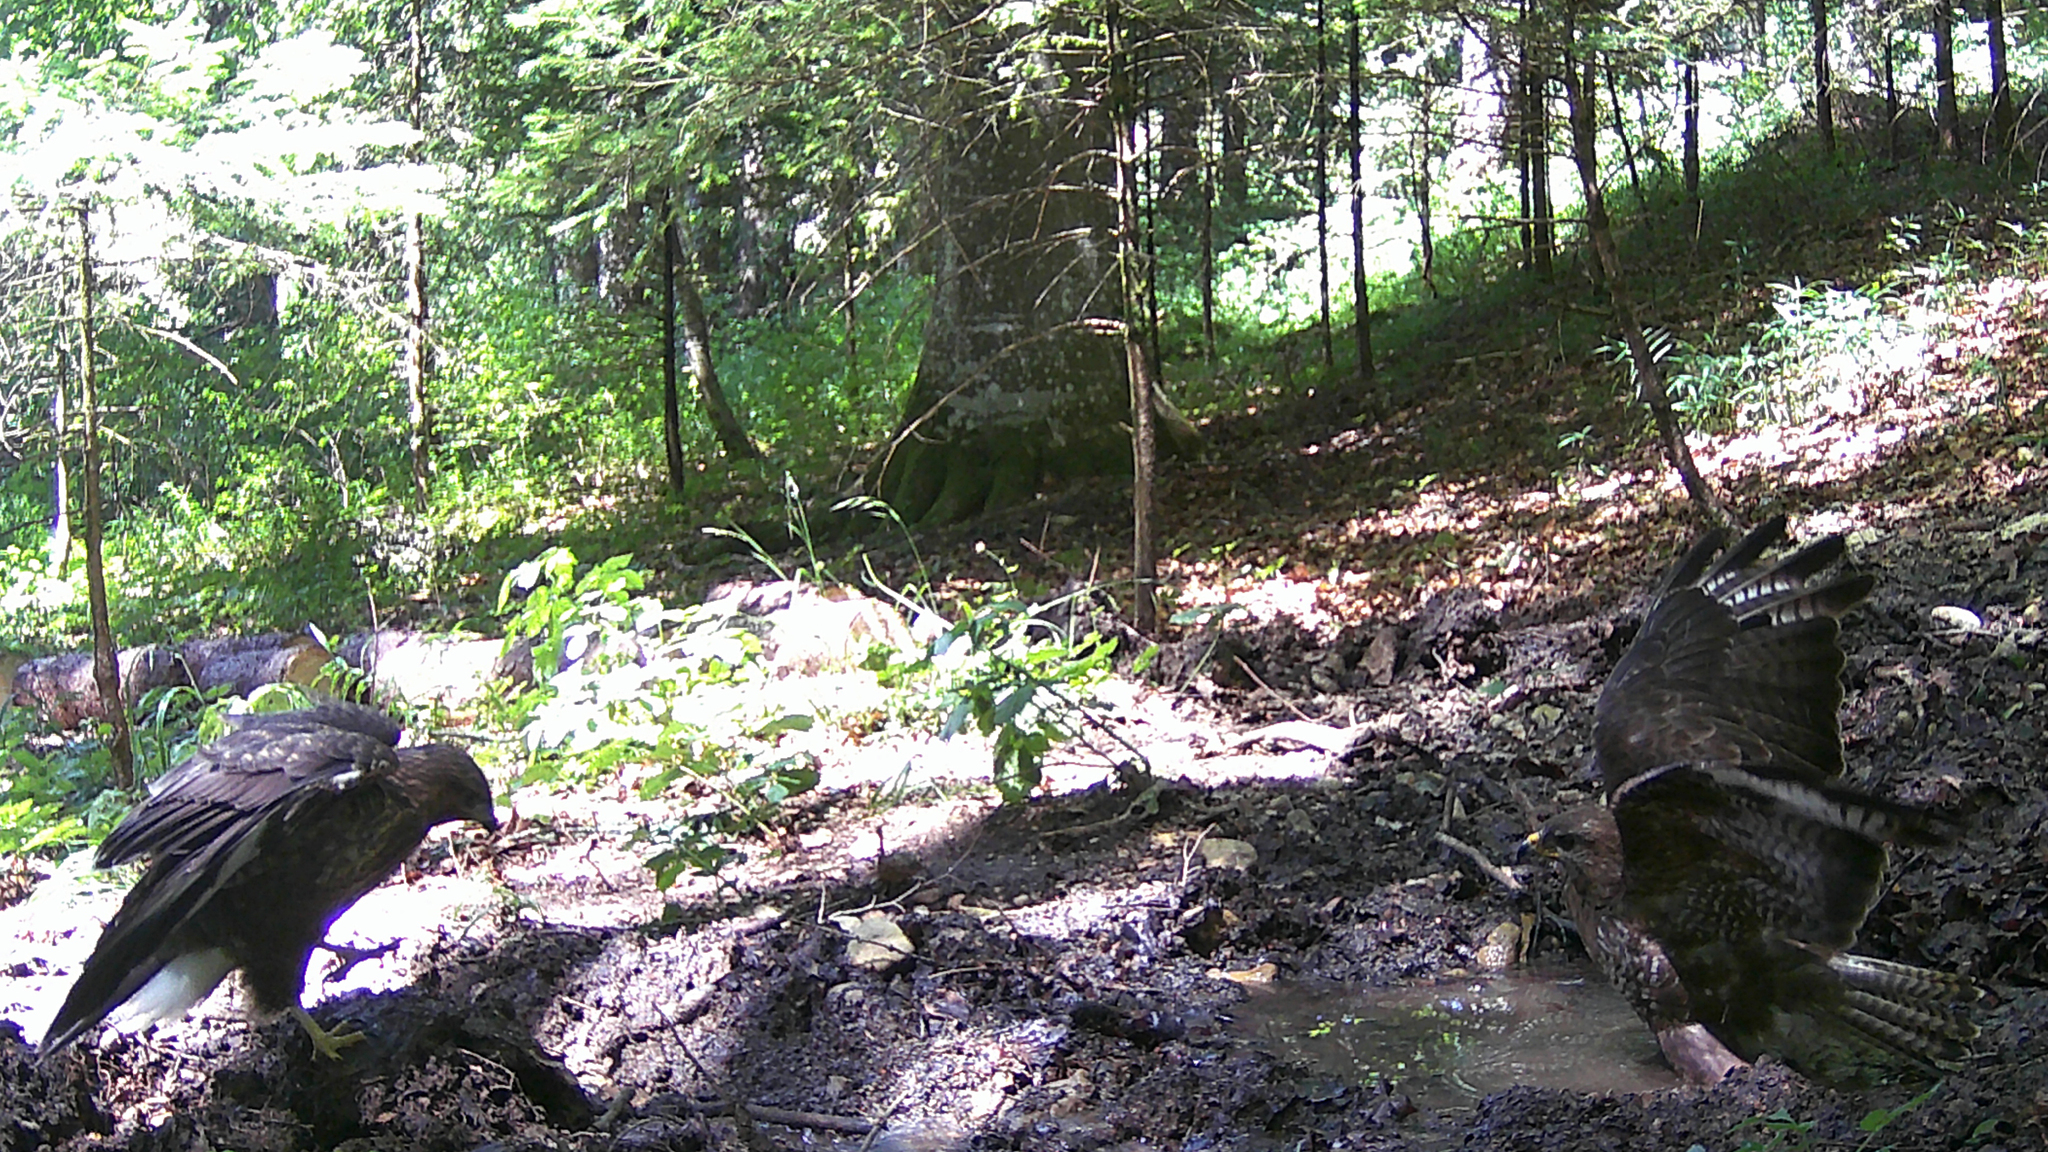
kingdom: Animalia
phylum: Chordata
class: Aves
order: Accipitriformes
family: Accipitridae
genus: Buteo
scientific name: Buteo buteo
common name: Common buzzard
